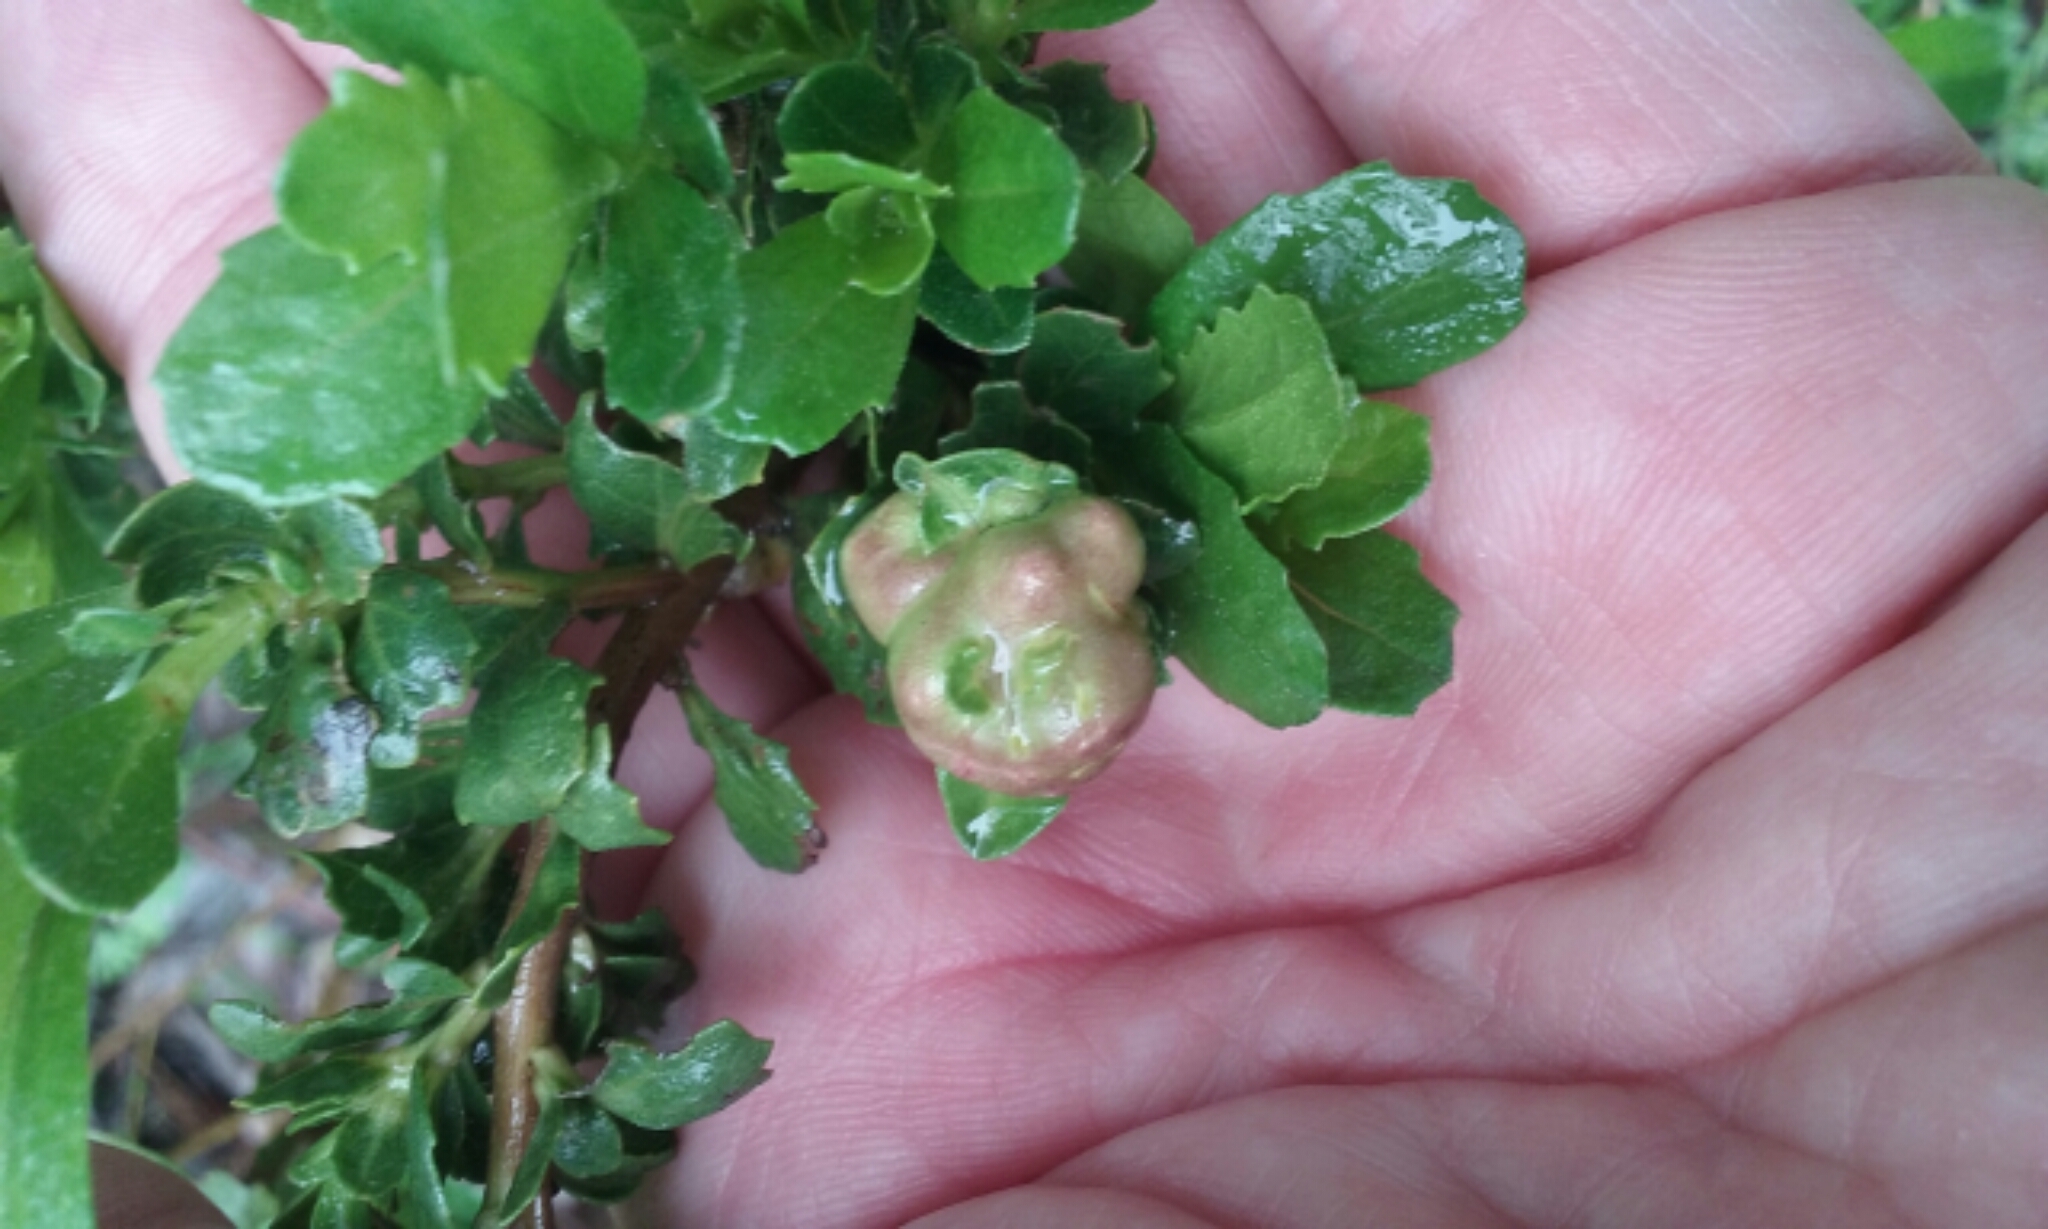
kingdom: Animalia
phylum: Arthropoda
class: Insecta
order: Diptera
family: Cecidomyiidae
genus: Rhopalomyia
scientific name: Rhopalomyia californica
